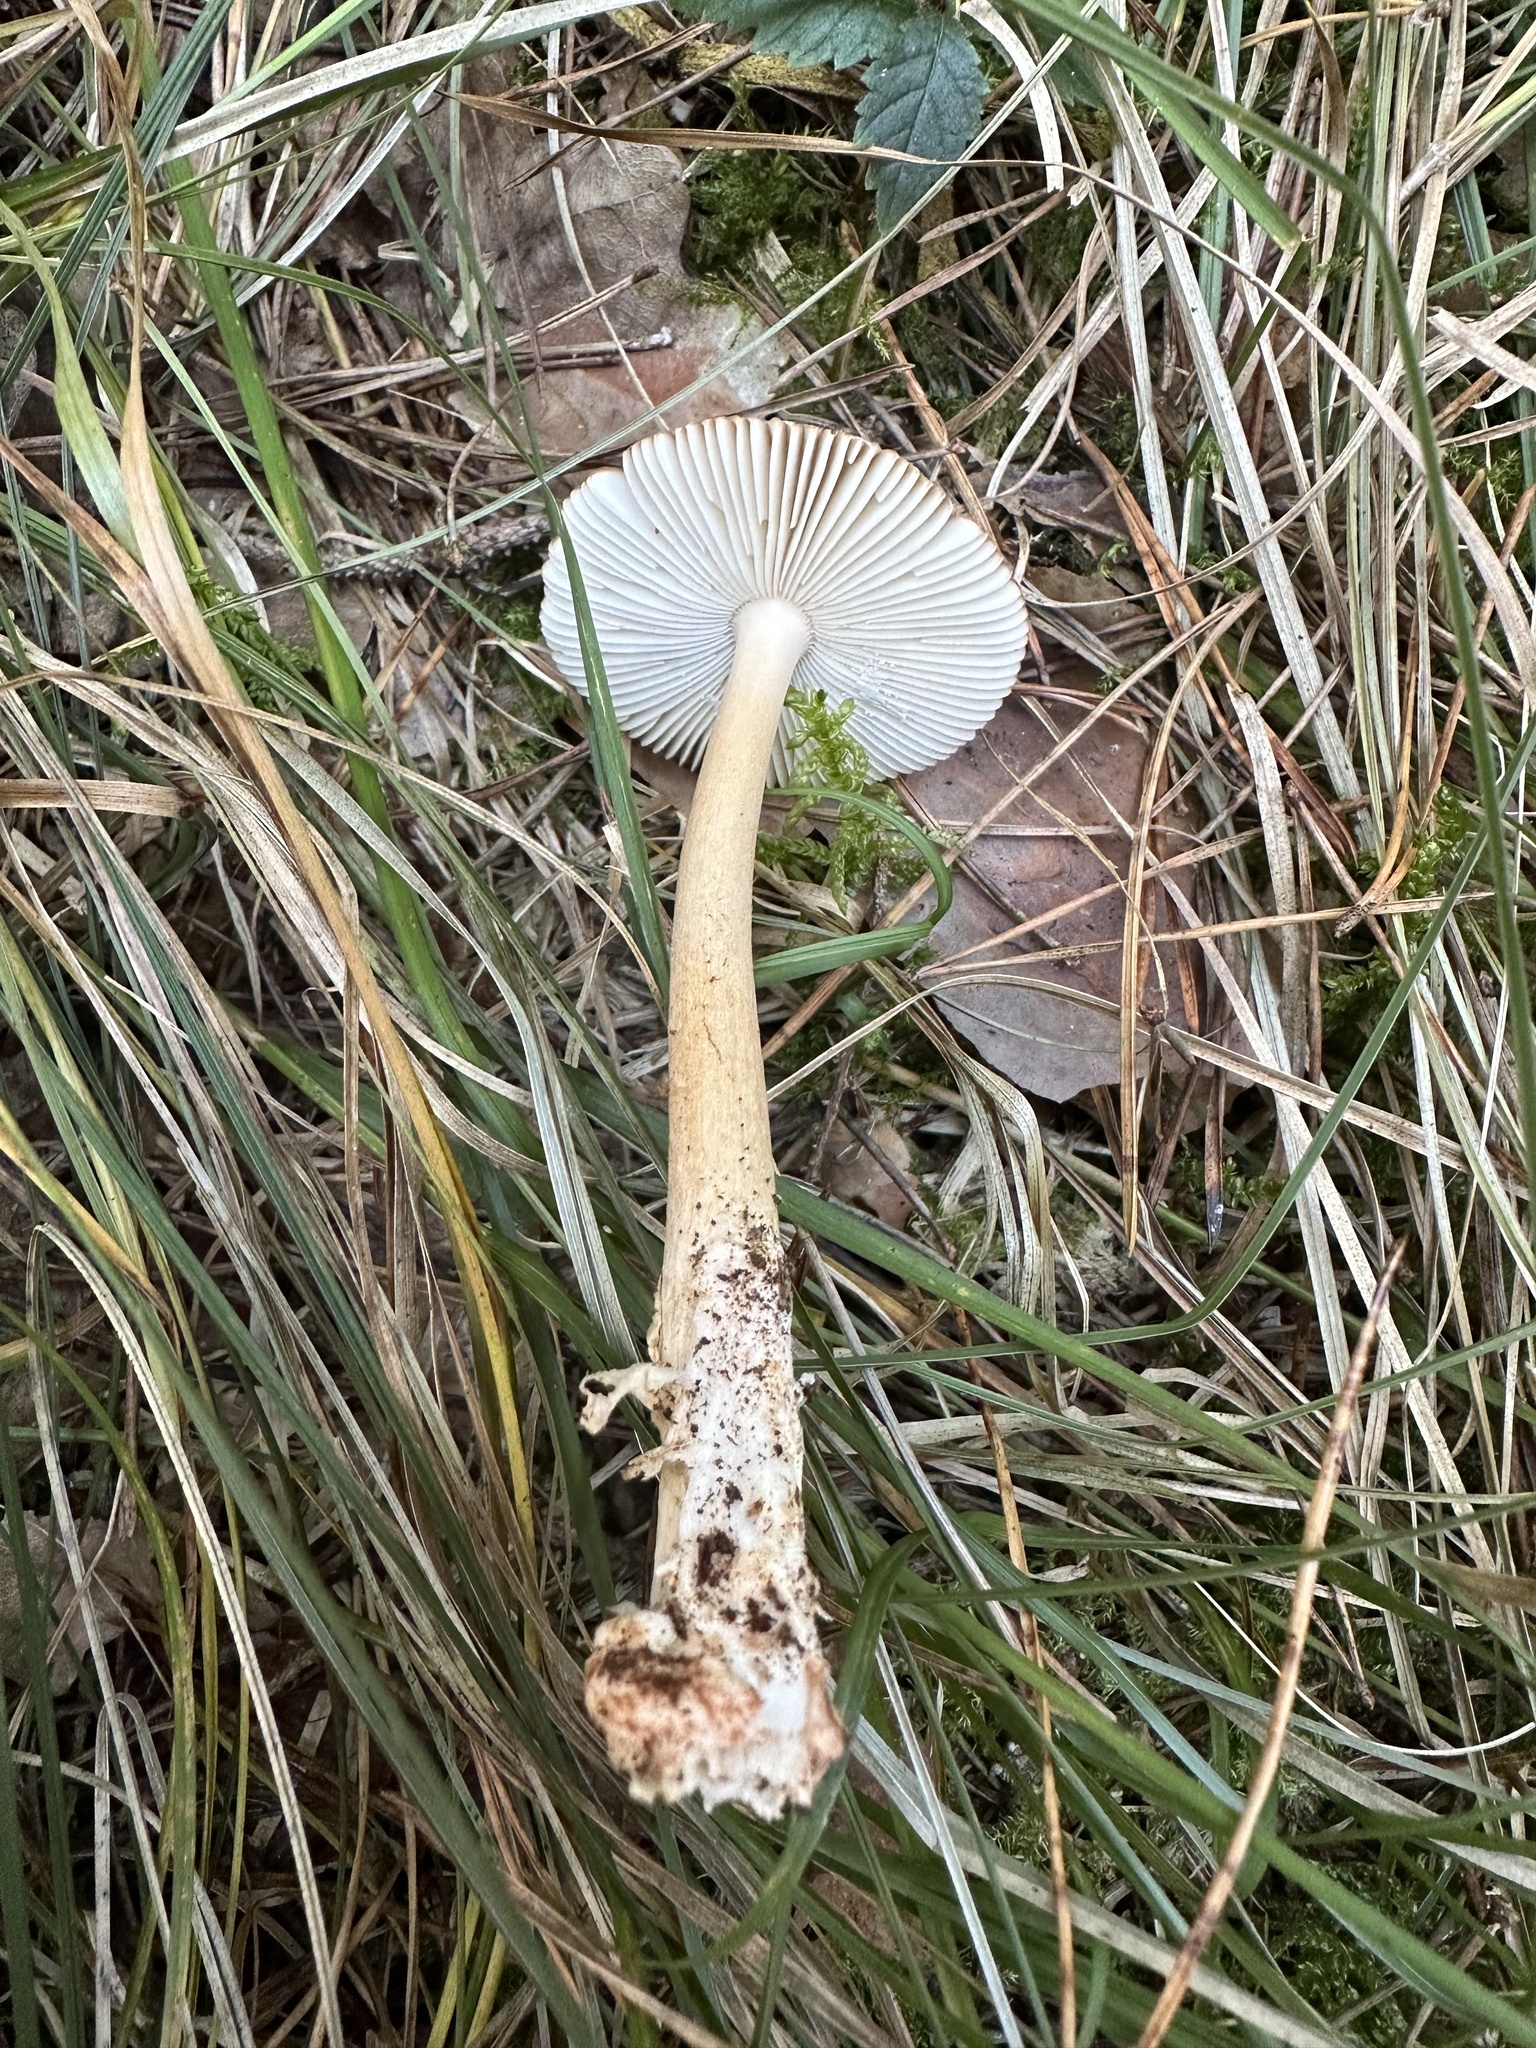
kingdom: Fungi
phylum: Basidiomycota
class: Agaricomycetes
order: Agaricales
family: Amanitaceae
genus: Amanita
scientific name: Amanita fulva
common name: Tawny grisette
